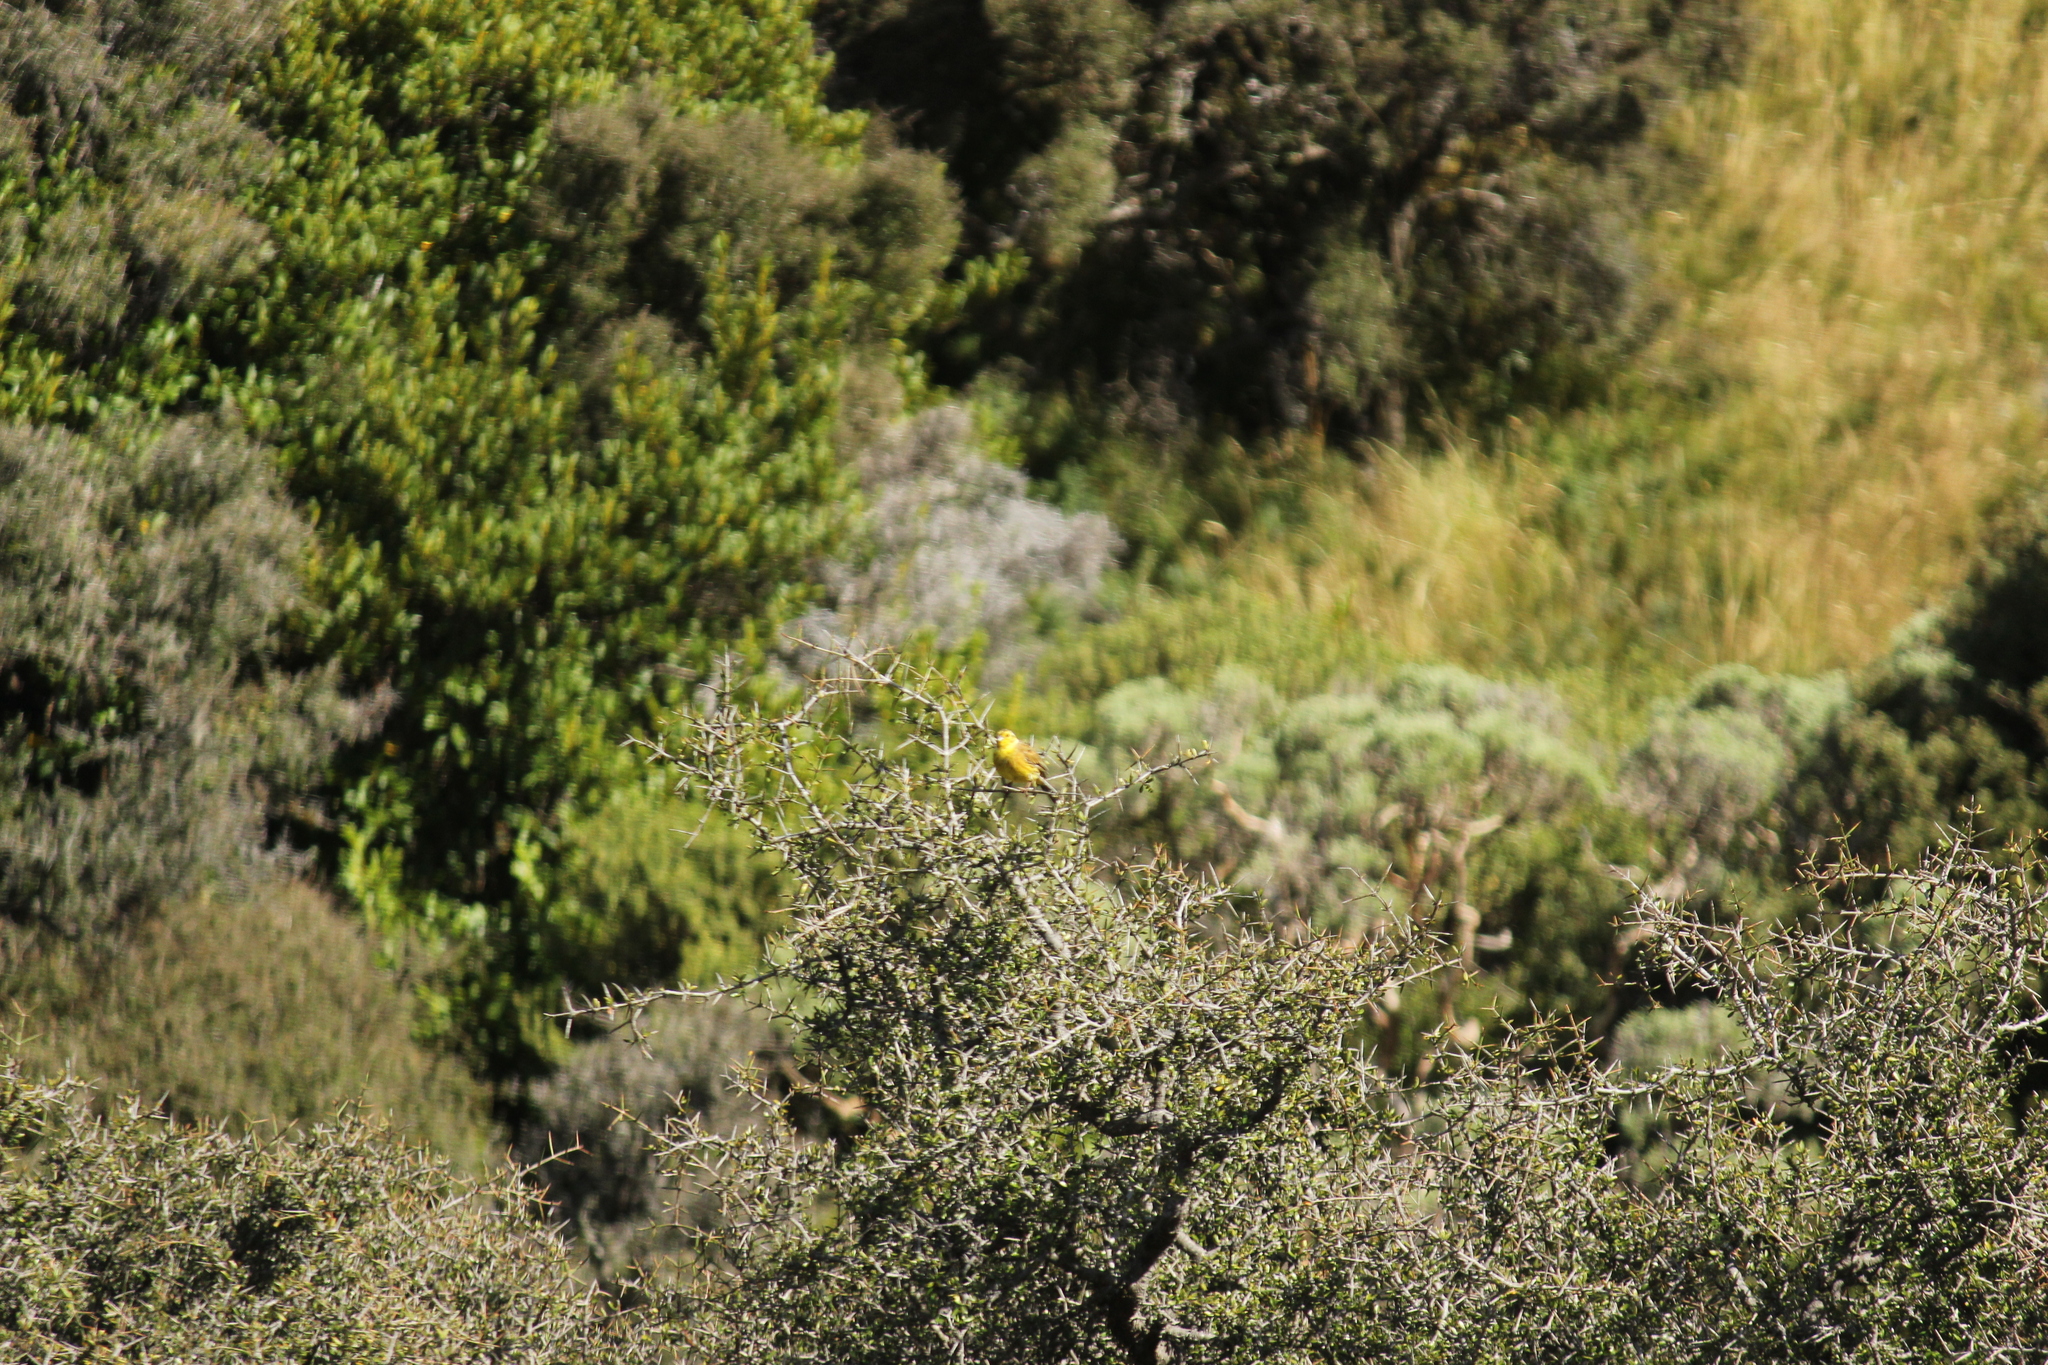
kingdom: Animalia
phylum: Chordata
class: Aves
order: Passeriformes
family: Emberizidae
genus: Emberiza
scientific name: Emberiza citrinella
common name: Yellowhammer
